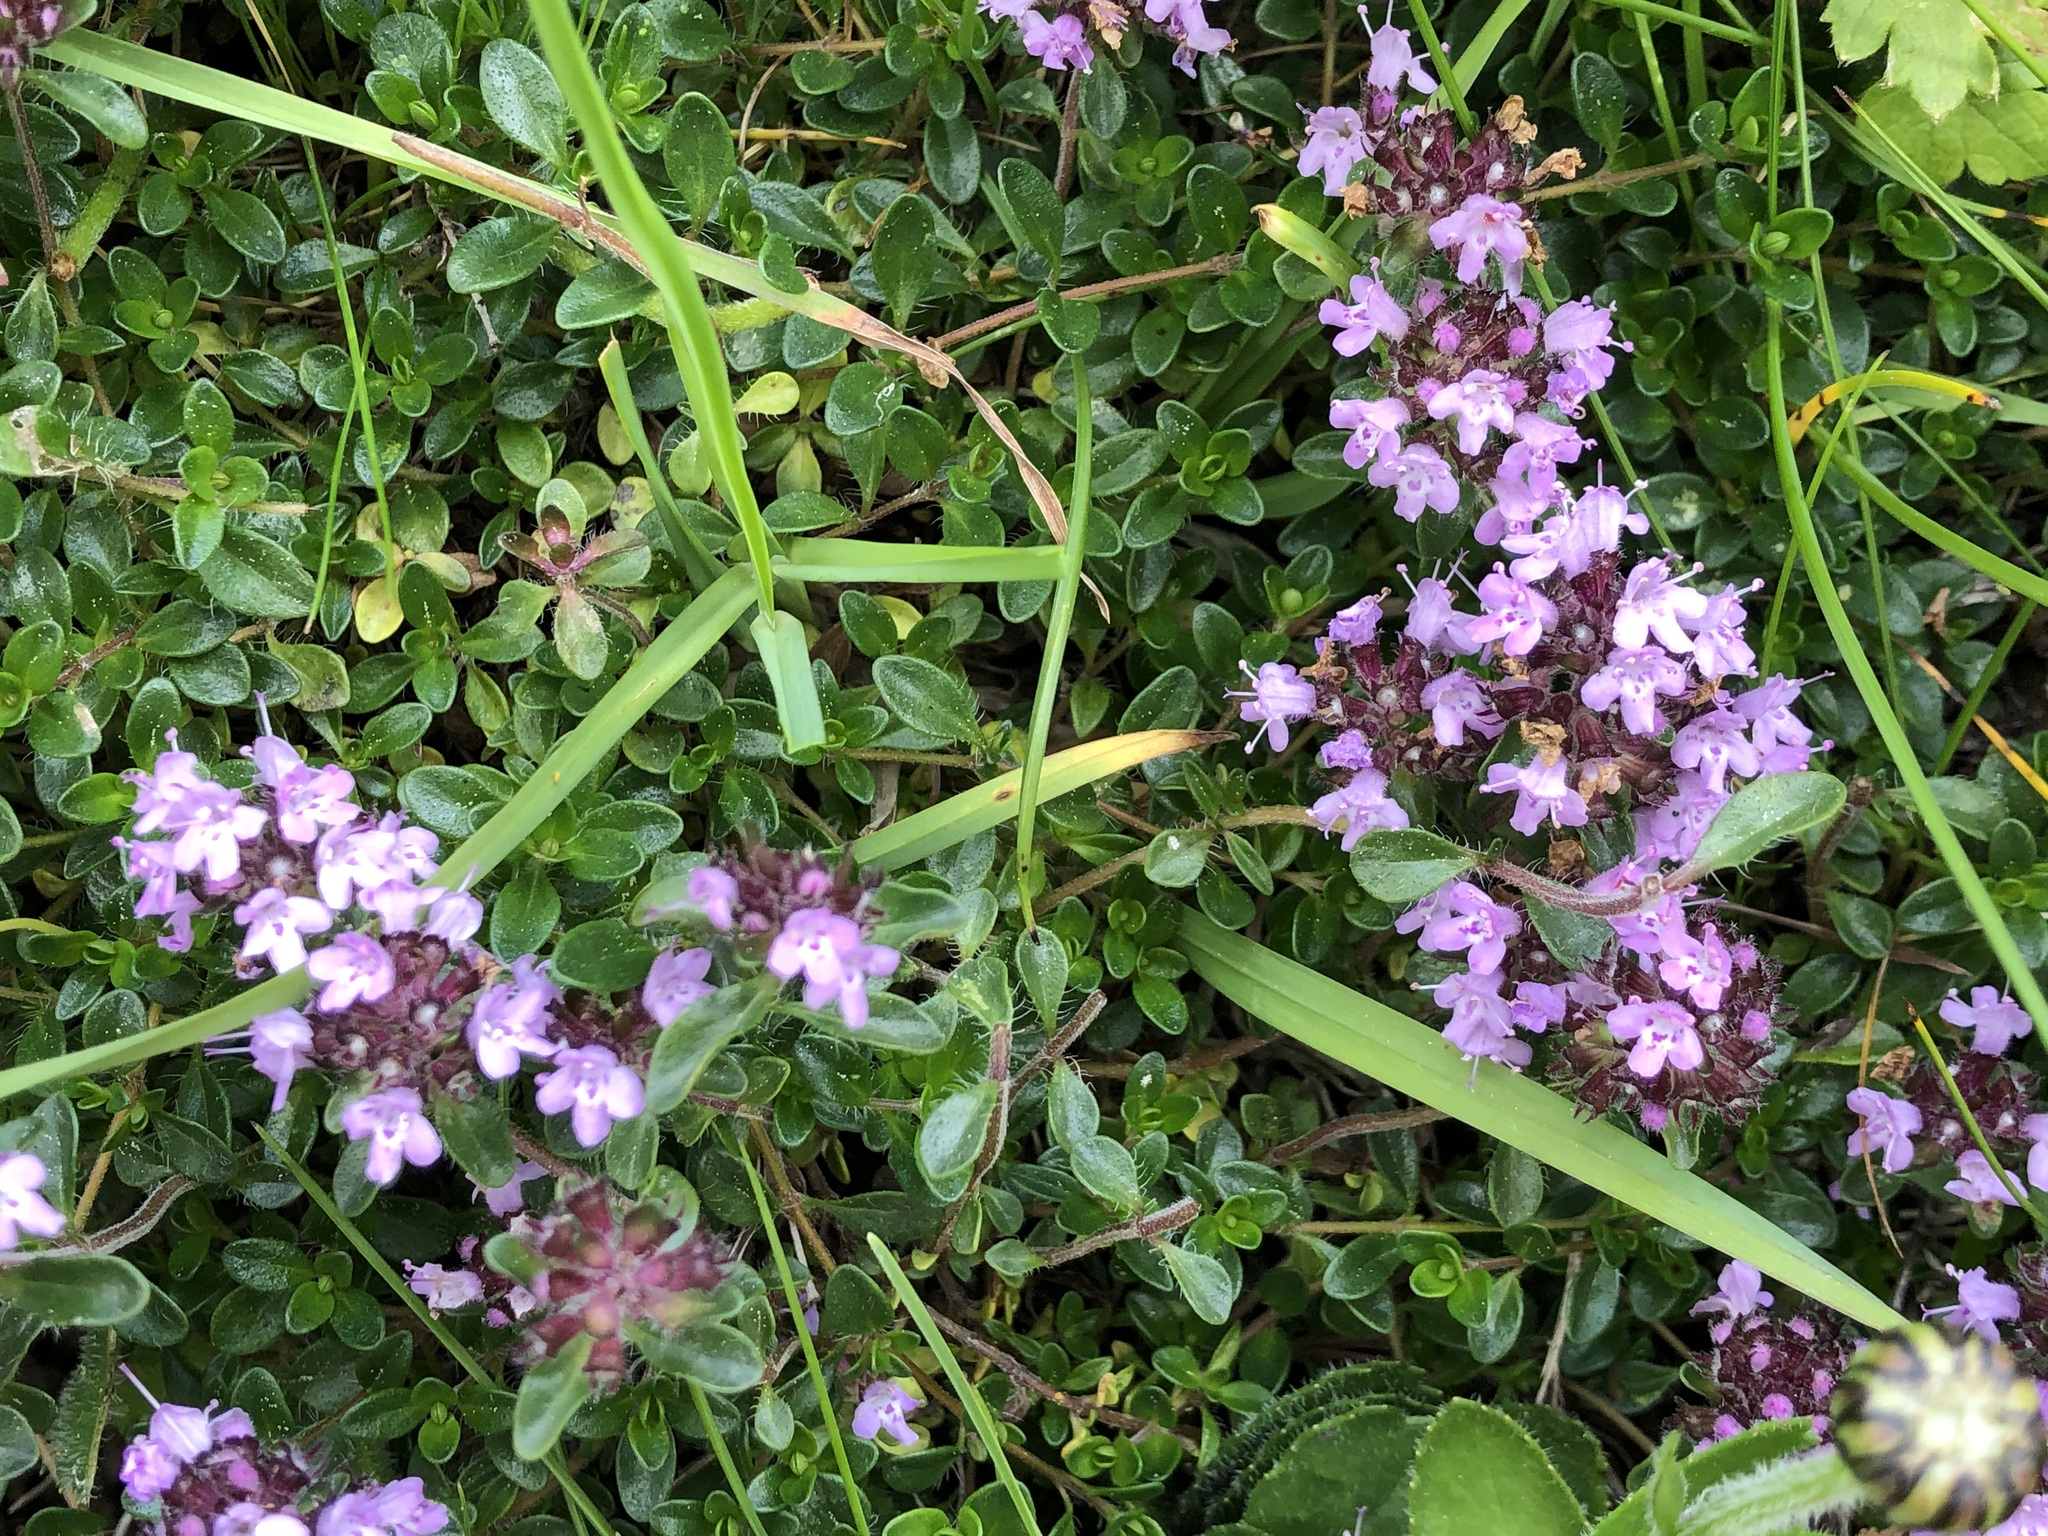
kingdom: Plantae
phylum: Tracheophyta
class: Magnoliopsida
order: Lamiales
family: Lamiaceae
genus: Thymus
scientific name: Thymus praecox
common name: Wild thyme
